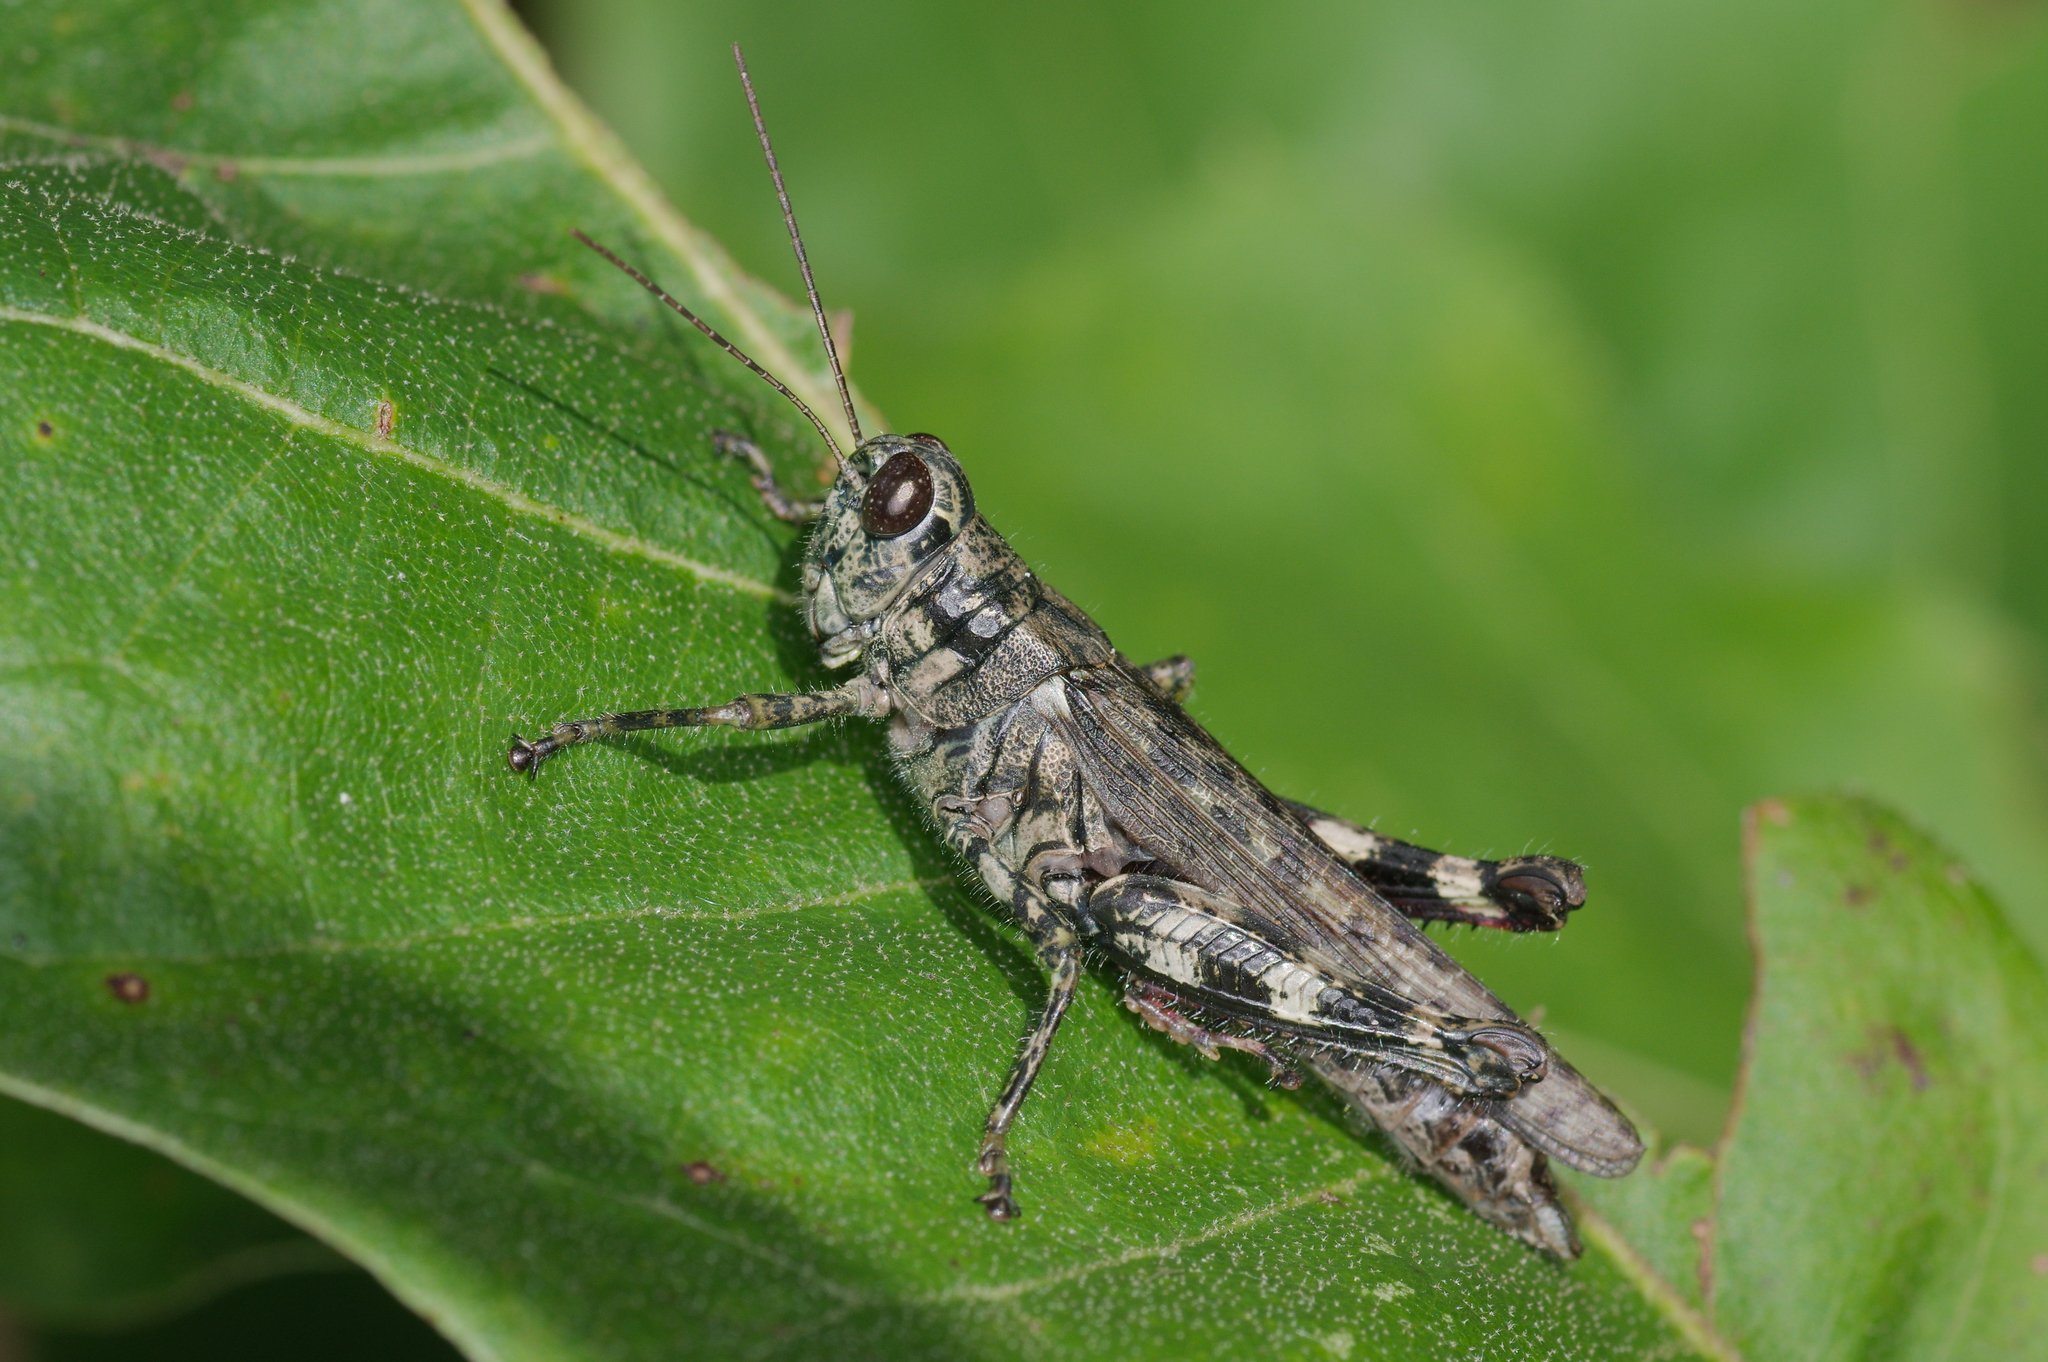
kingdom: Animalia
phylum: Arthropoda
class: Insecta
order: Orthoptera
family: Acrididae
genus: Melanoplus
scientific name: Melanoplus punctulatus
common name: Pine-tree spur-throat grasshopper
